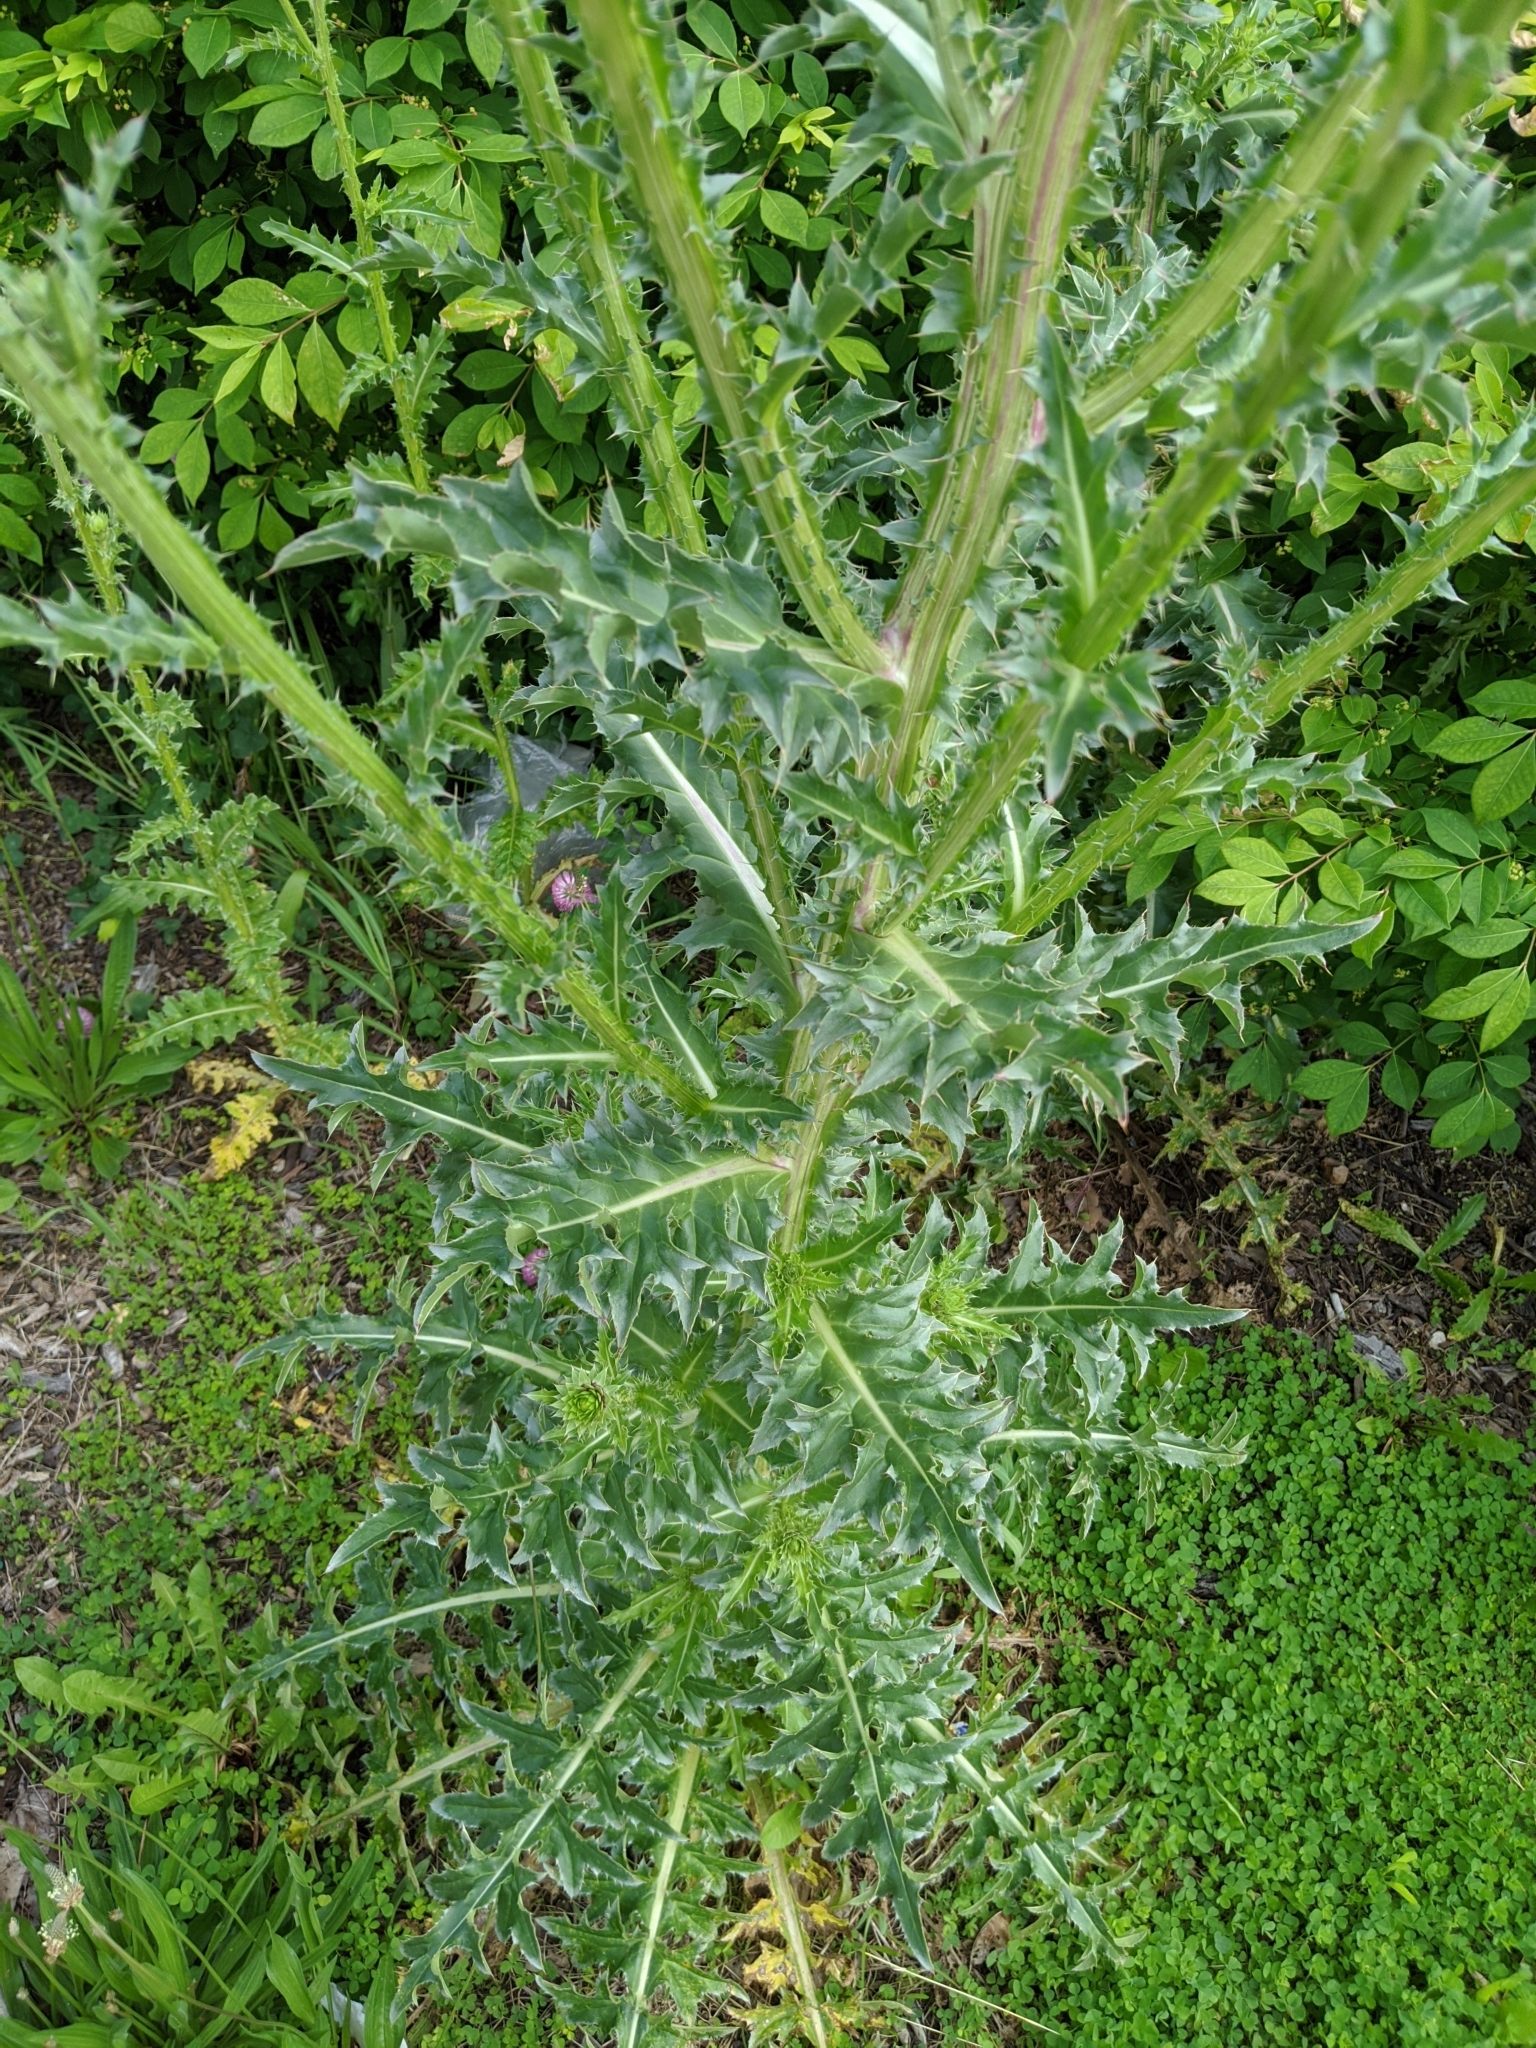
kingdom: Plantae
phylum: Tracheophyta
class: Magnoliopsida
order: Asterales
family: Asteraceae
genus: Carduus
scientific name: Carduus nutans
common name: Musk thistle
